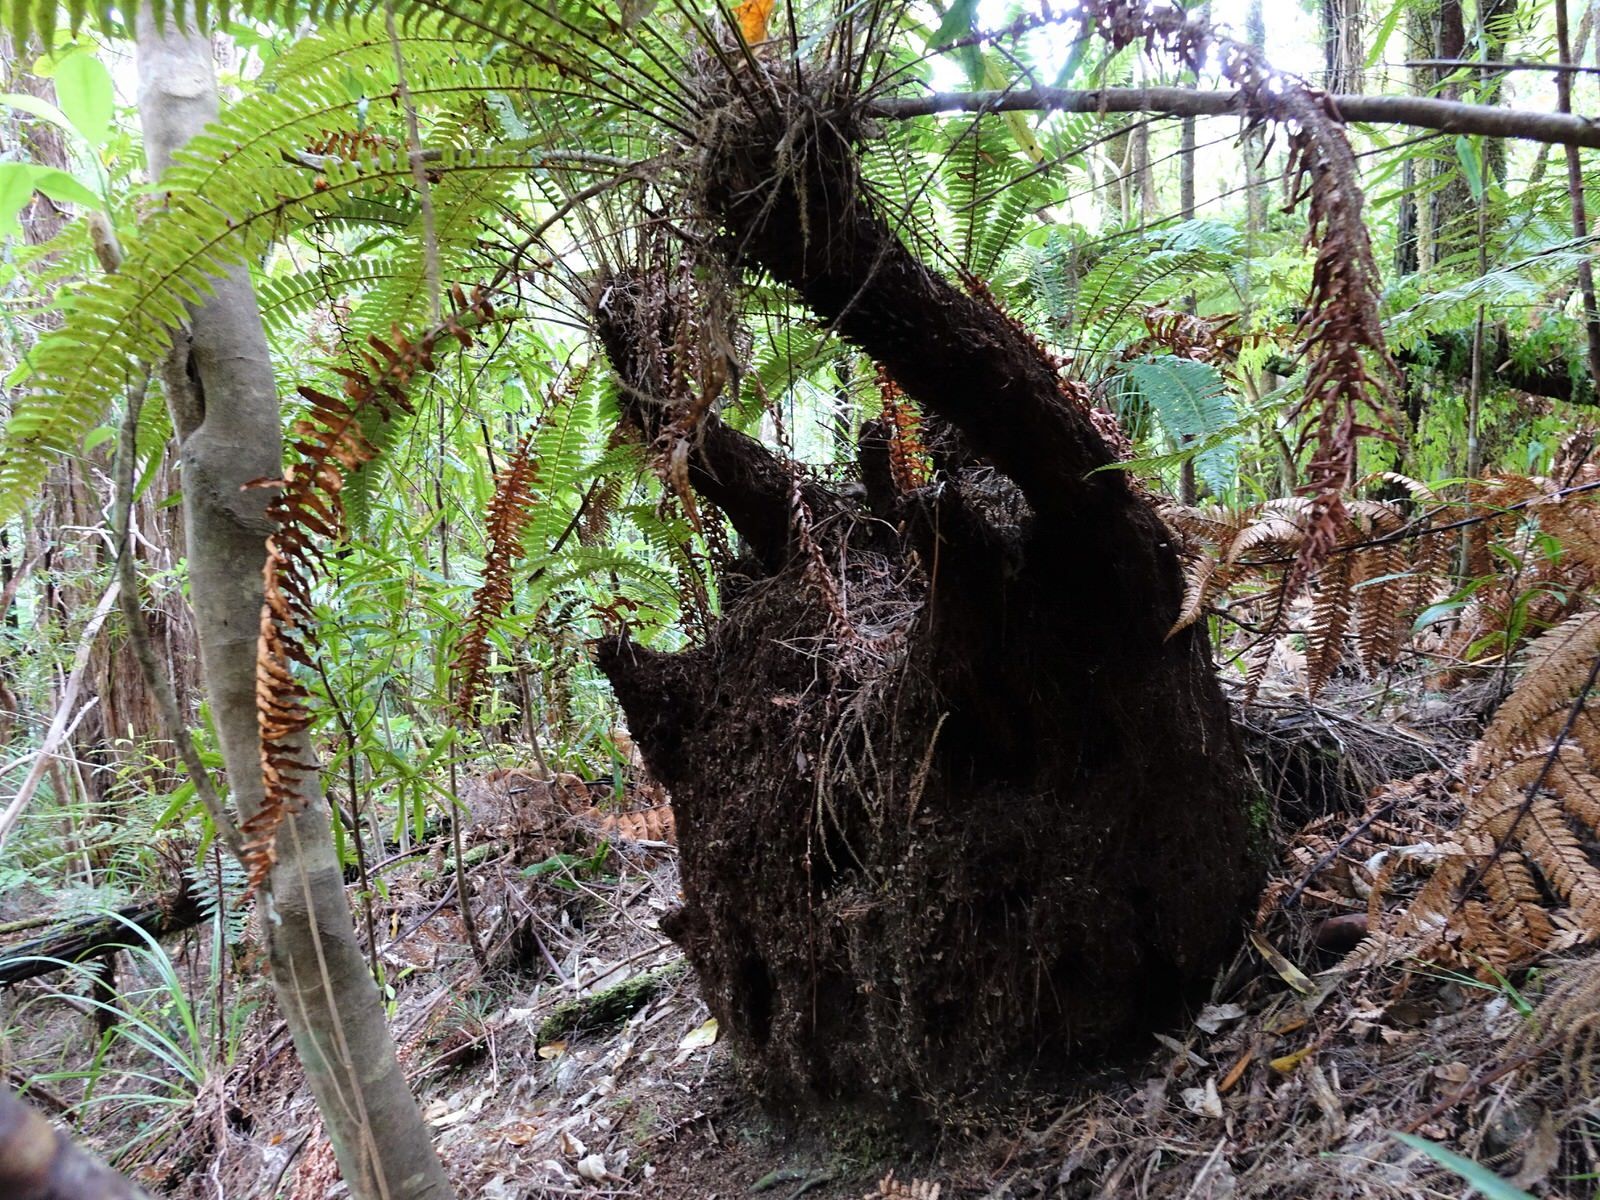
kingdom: Plantae
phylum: Tracheophyta
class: Polypodiopsida
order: Polypodiales
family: Blechnaceae
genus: Lomaria
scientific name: Lomaria discolor
